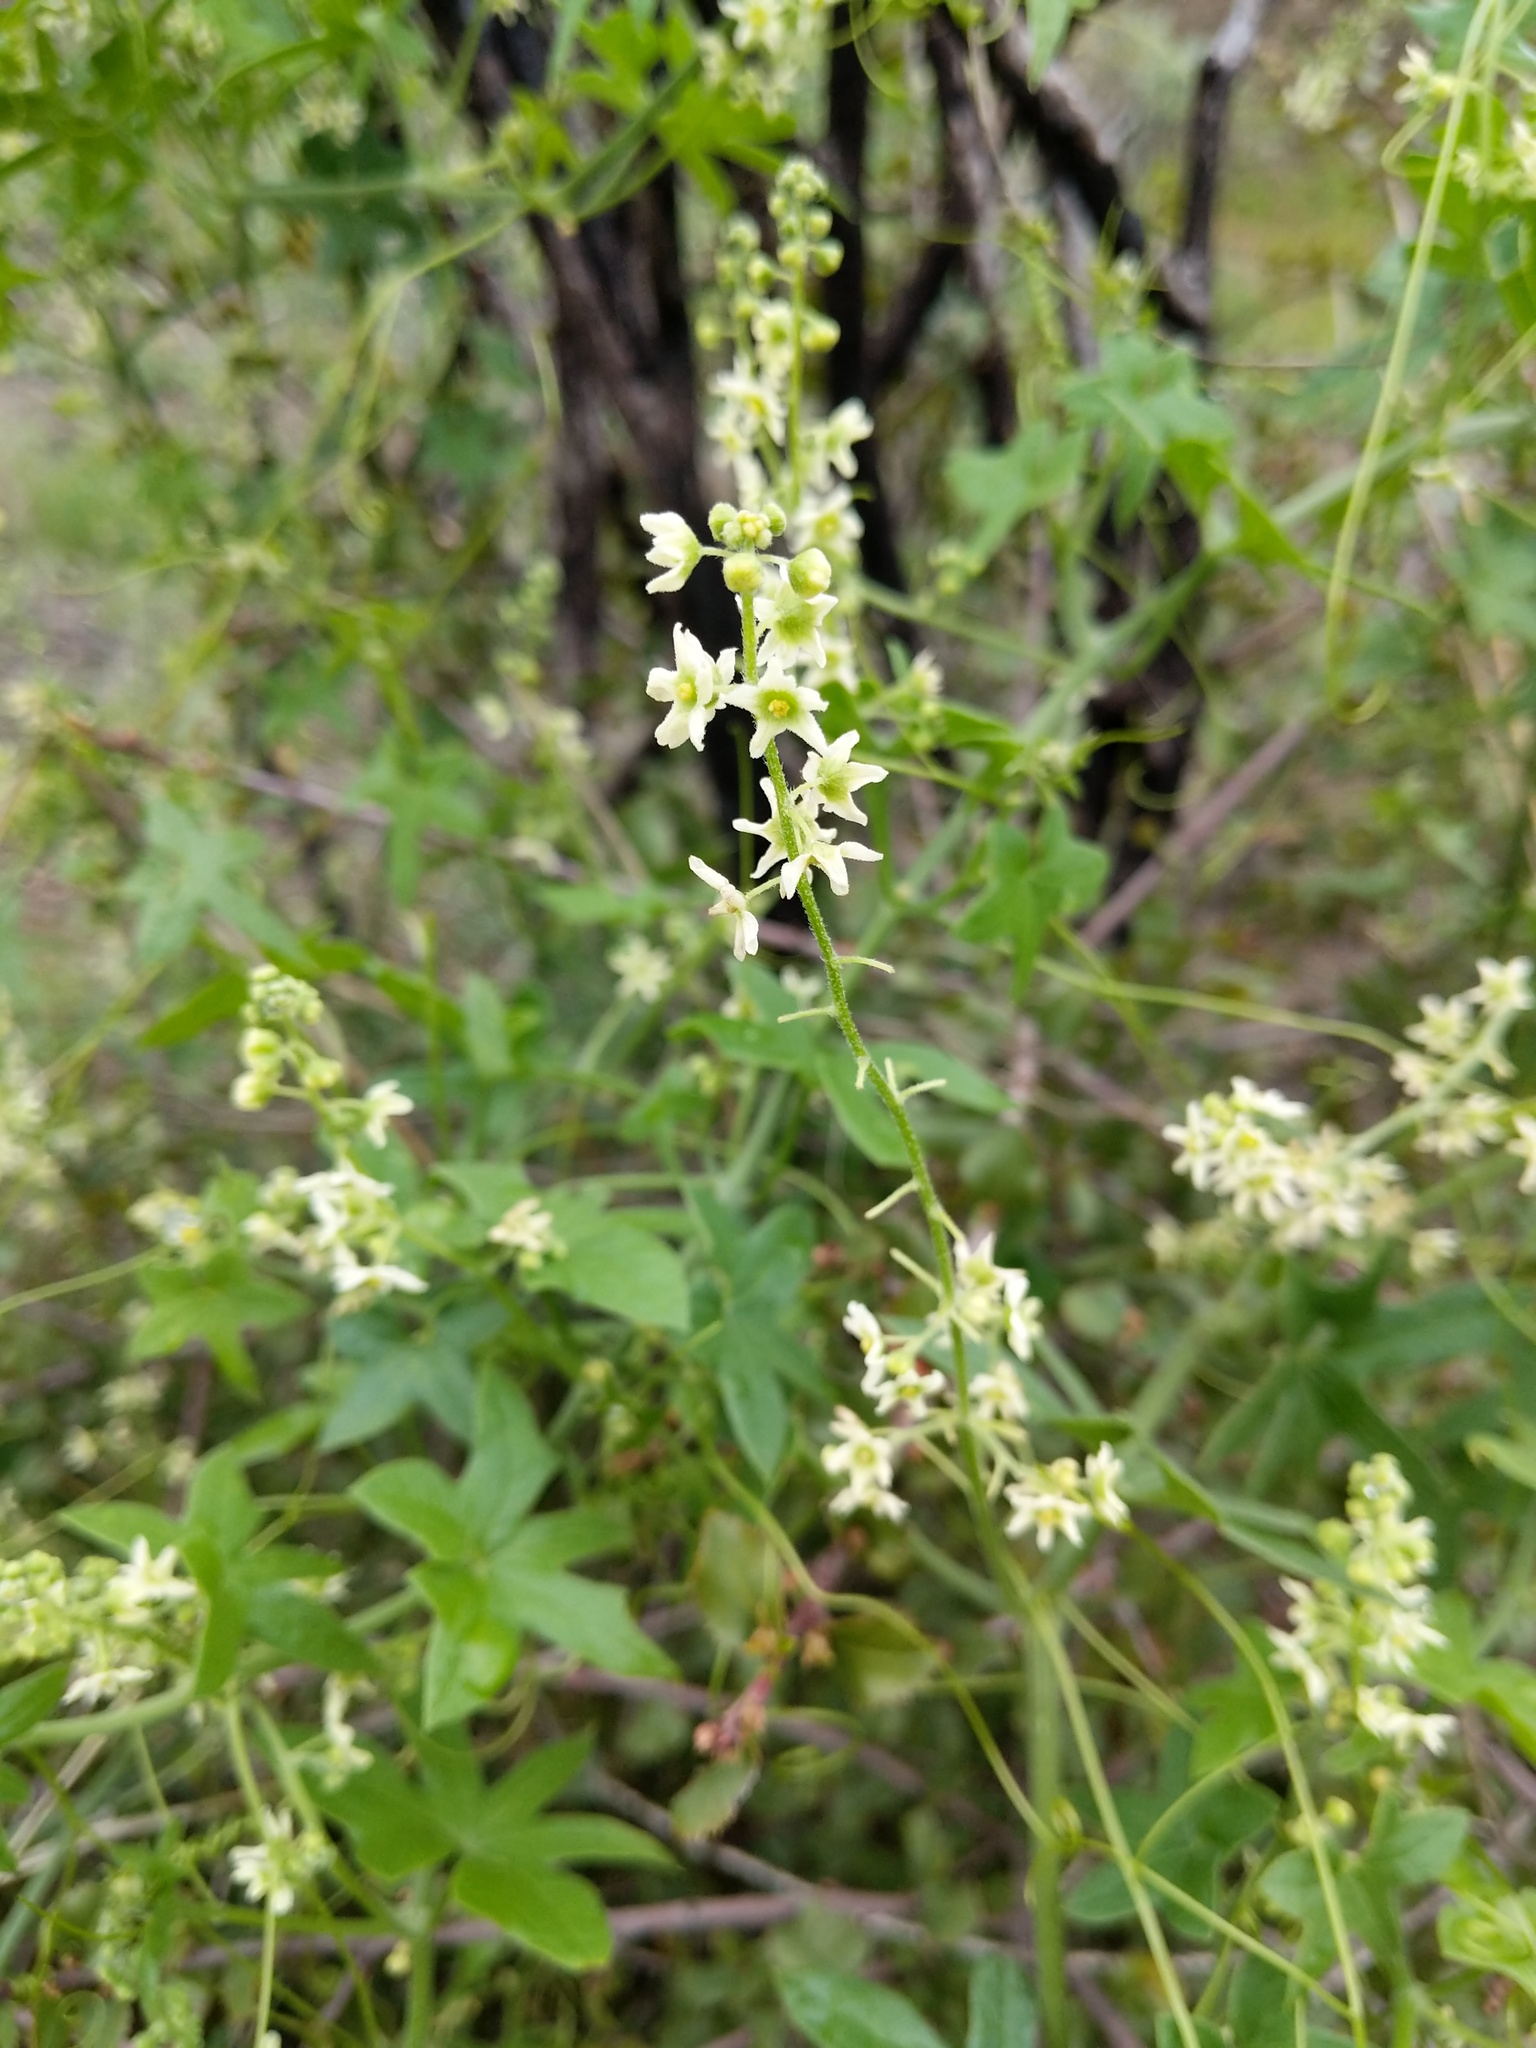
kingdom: Plantae
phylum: Tracheophyta
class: Magnoliopsida
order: Cucurbitales
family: Cucurbitaceae
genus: Marah
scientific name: Marah fabacea
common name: California manroot
